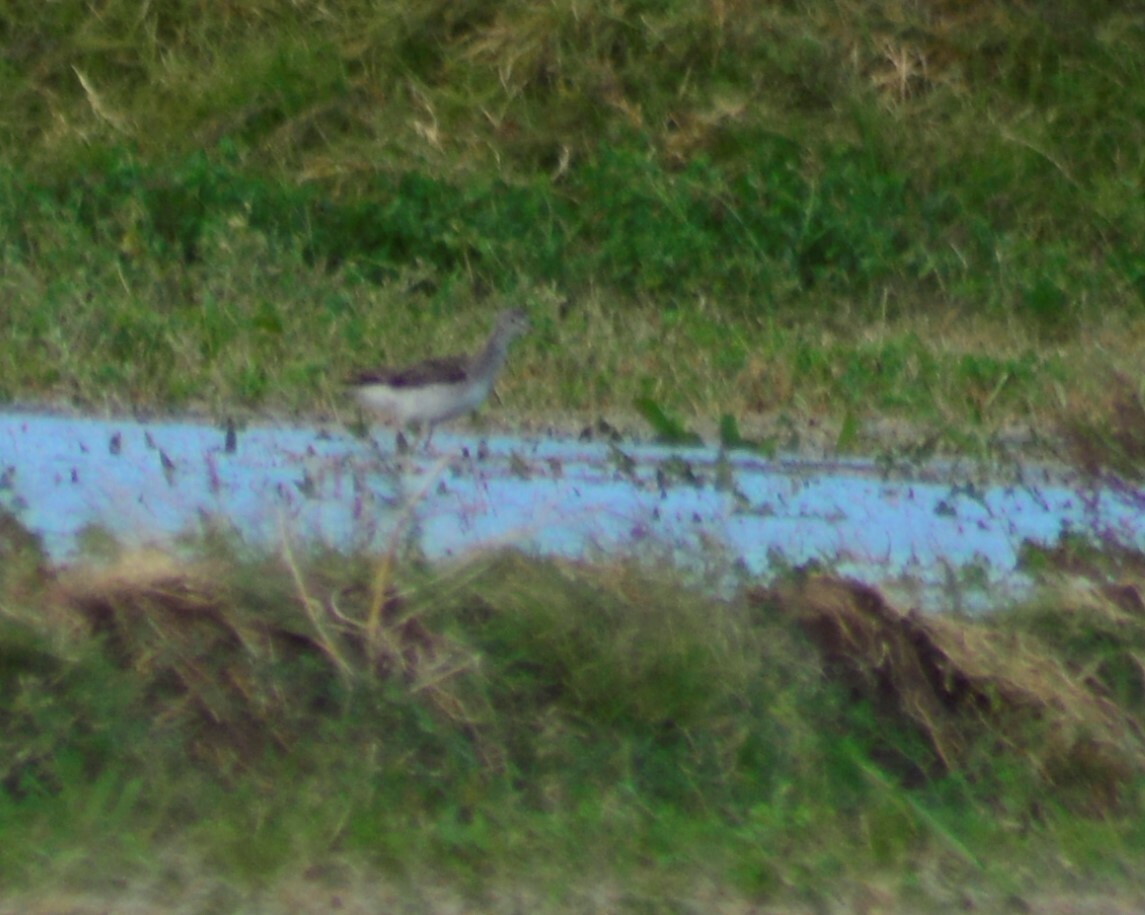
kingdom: Animalia
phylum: Chordata
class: Aves
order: Charadriiformes
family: Scolopacidae
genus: Tringa
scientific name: Tringa melanoleuca
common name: Greater yellowlegs
